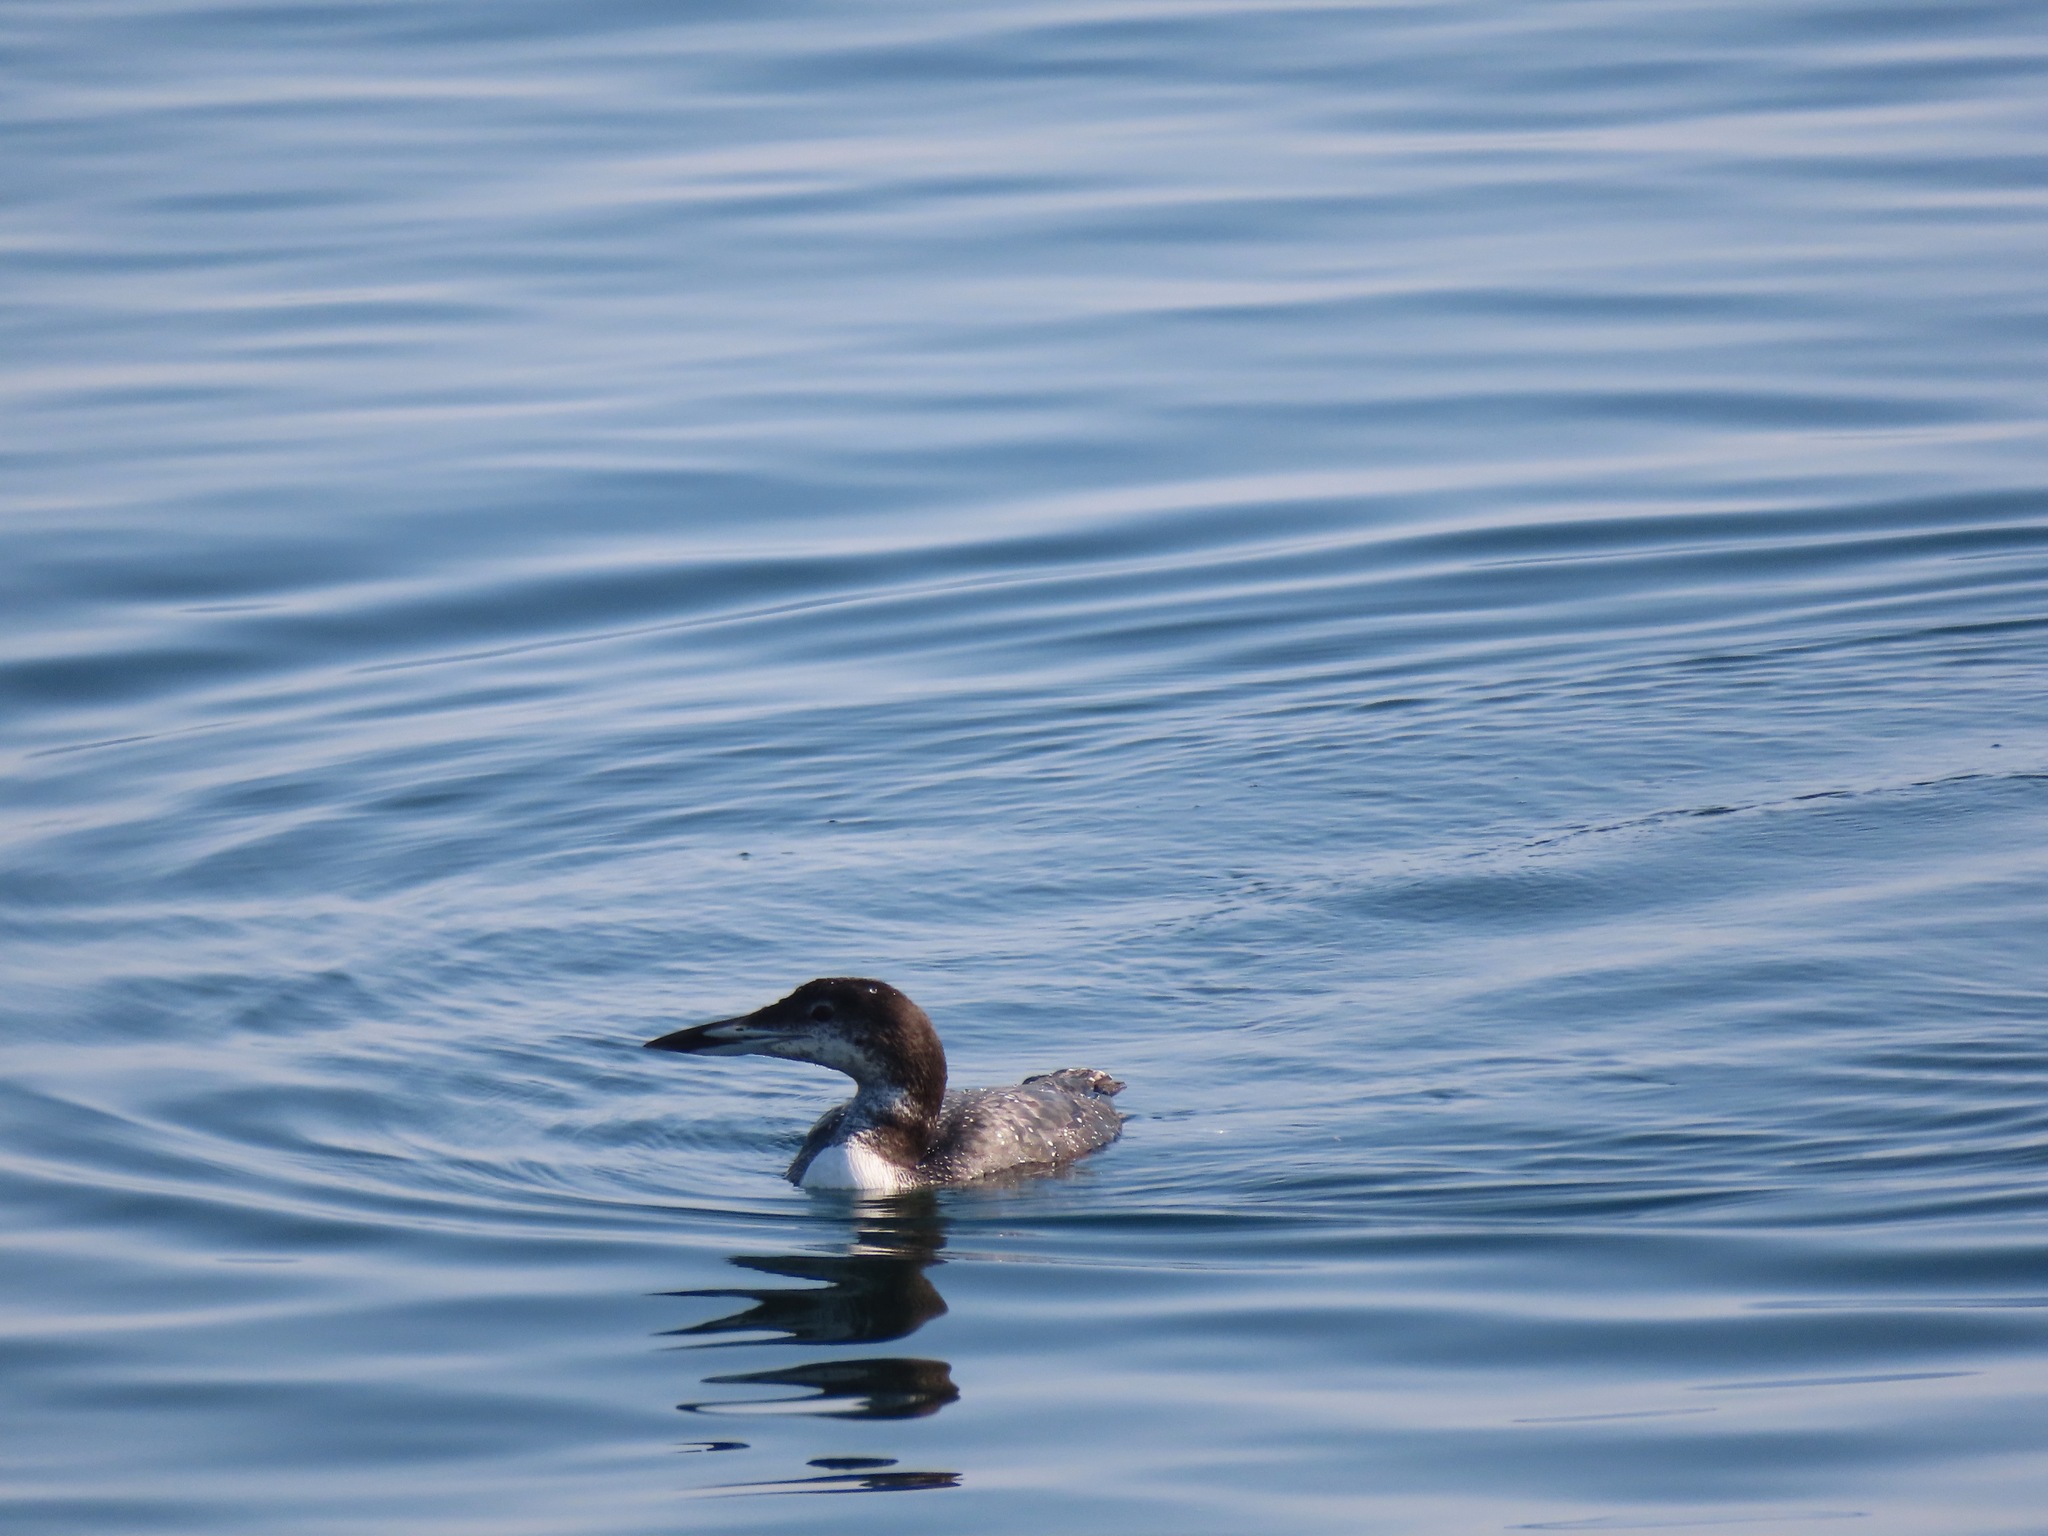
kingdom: Animalia
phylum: Chordata
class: Aves
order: Gaviiformes
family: Gaviidae
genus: Gavia
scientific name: Gavia immer
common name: Common loon
